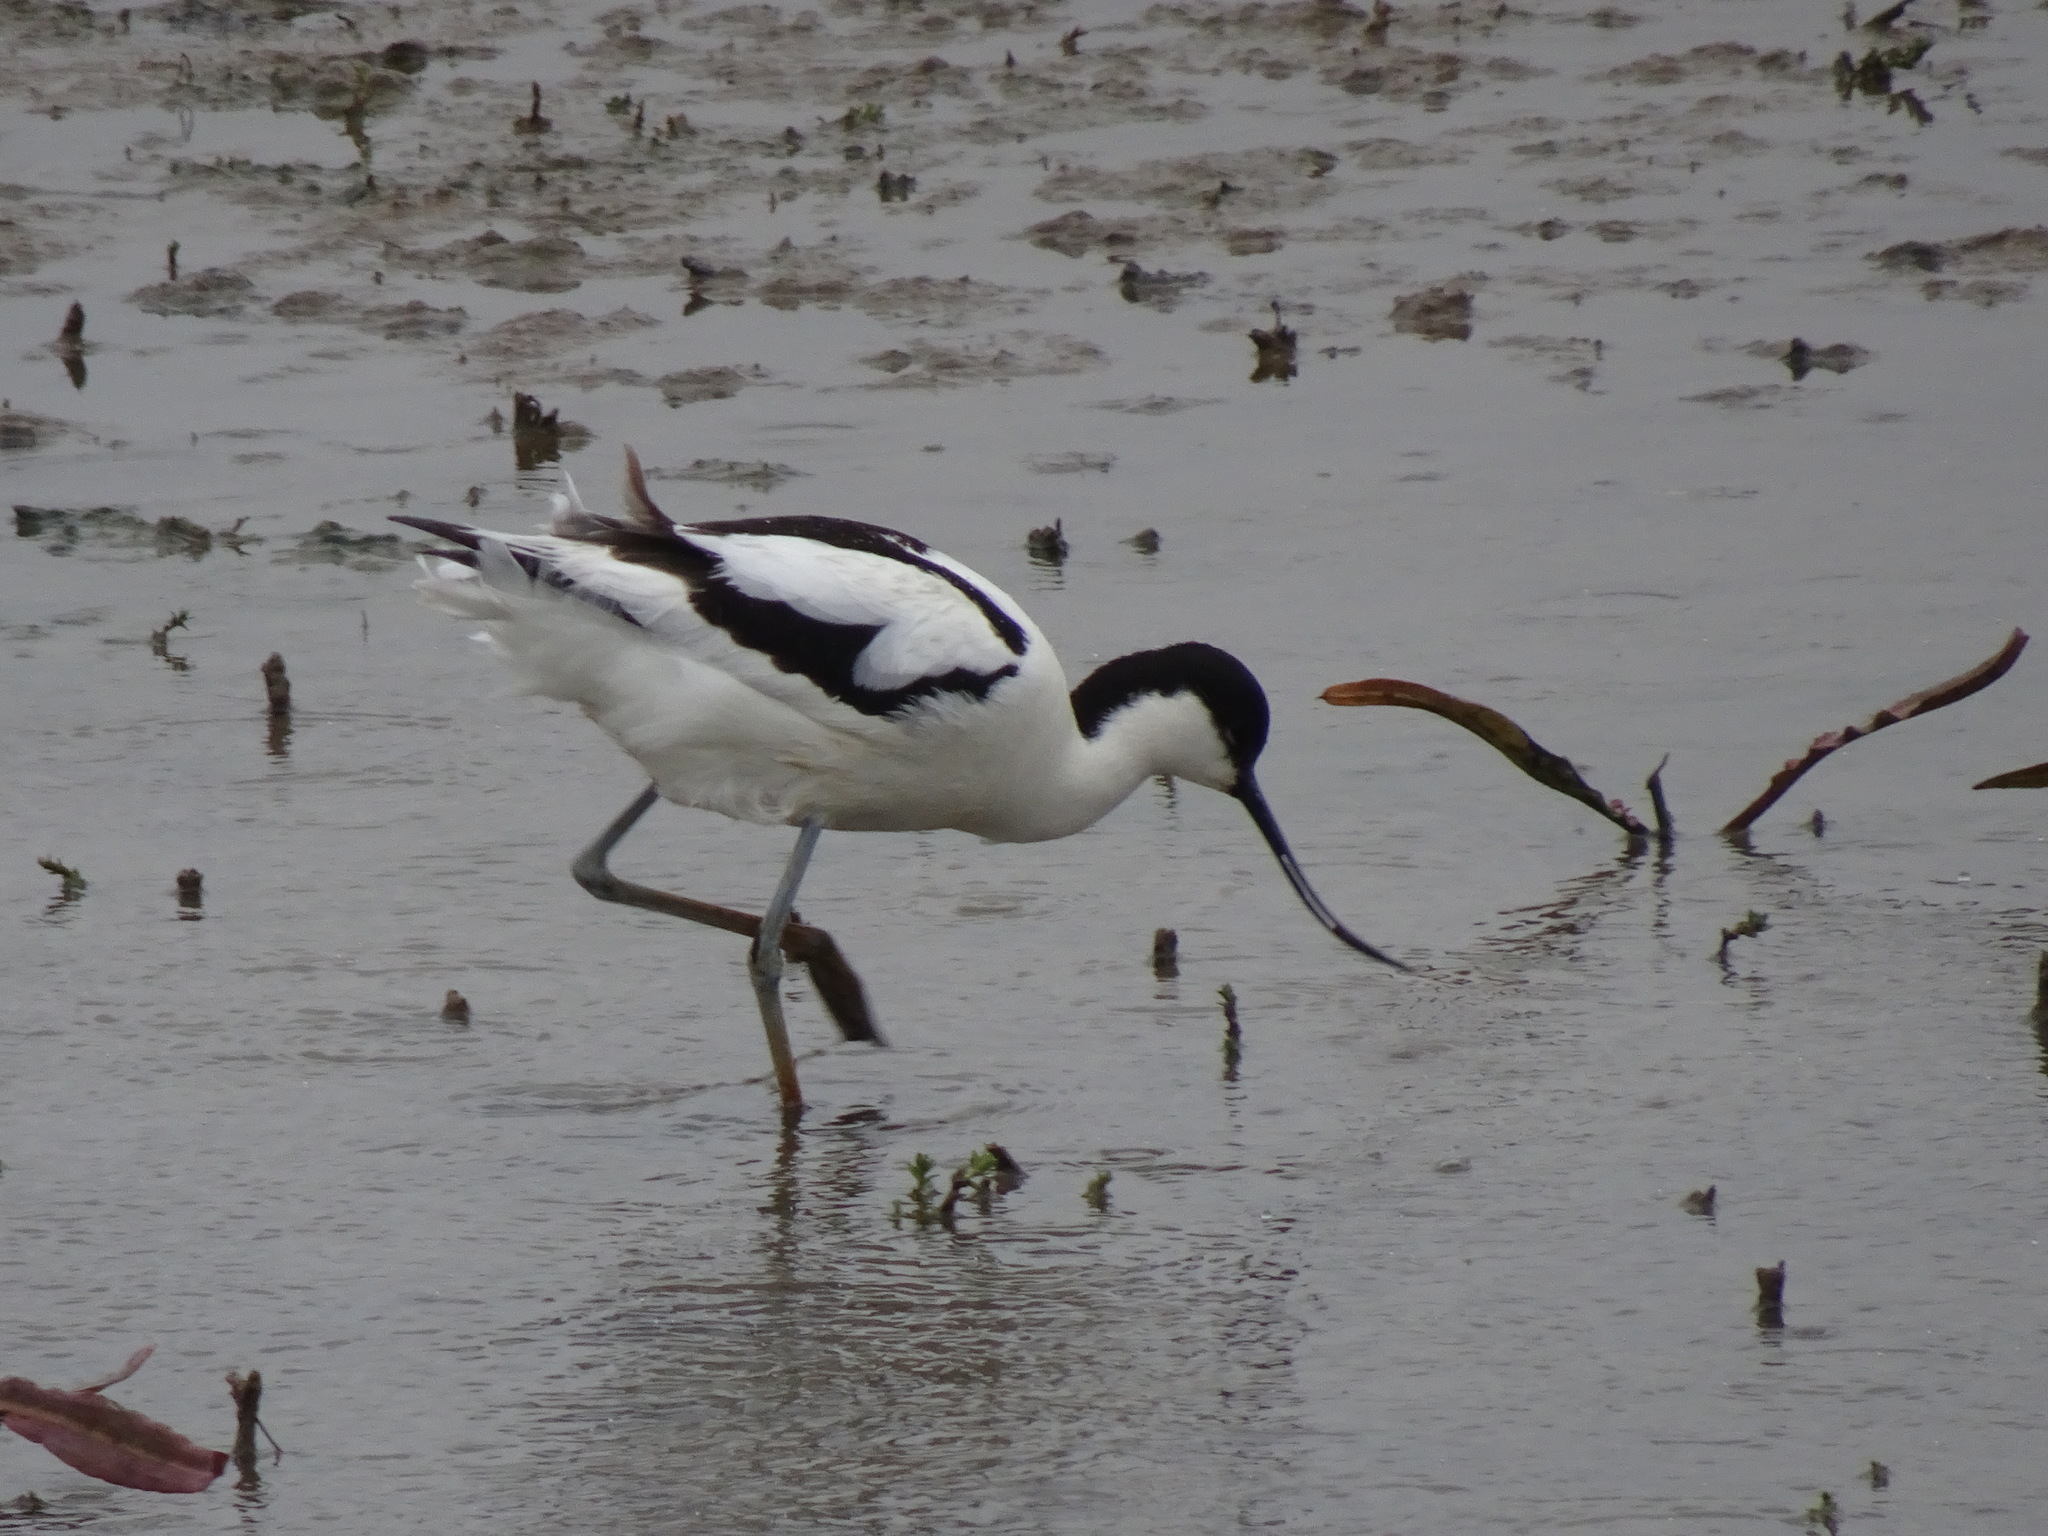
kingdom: Animalia
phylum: Chordata
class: Aves
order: Charadriiformes
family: Recurvirostridae
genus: Recurvirostra
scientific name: Recurvirostra avosetta
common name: Pied avocet
